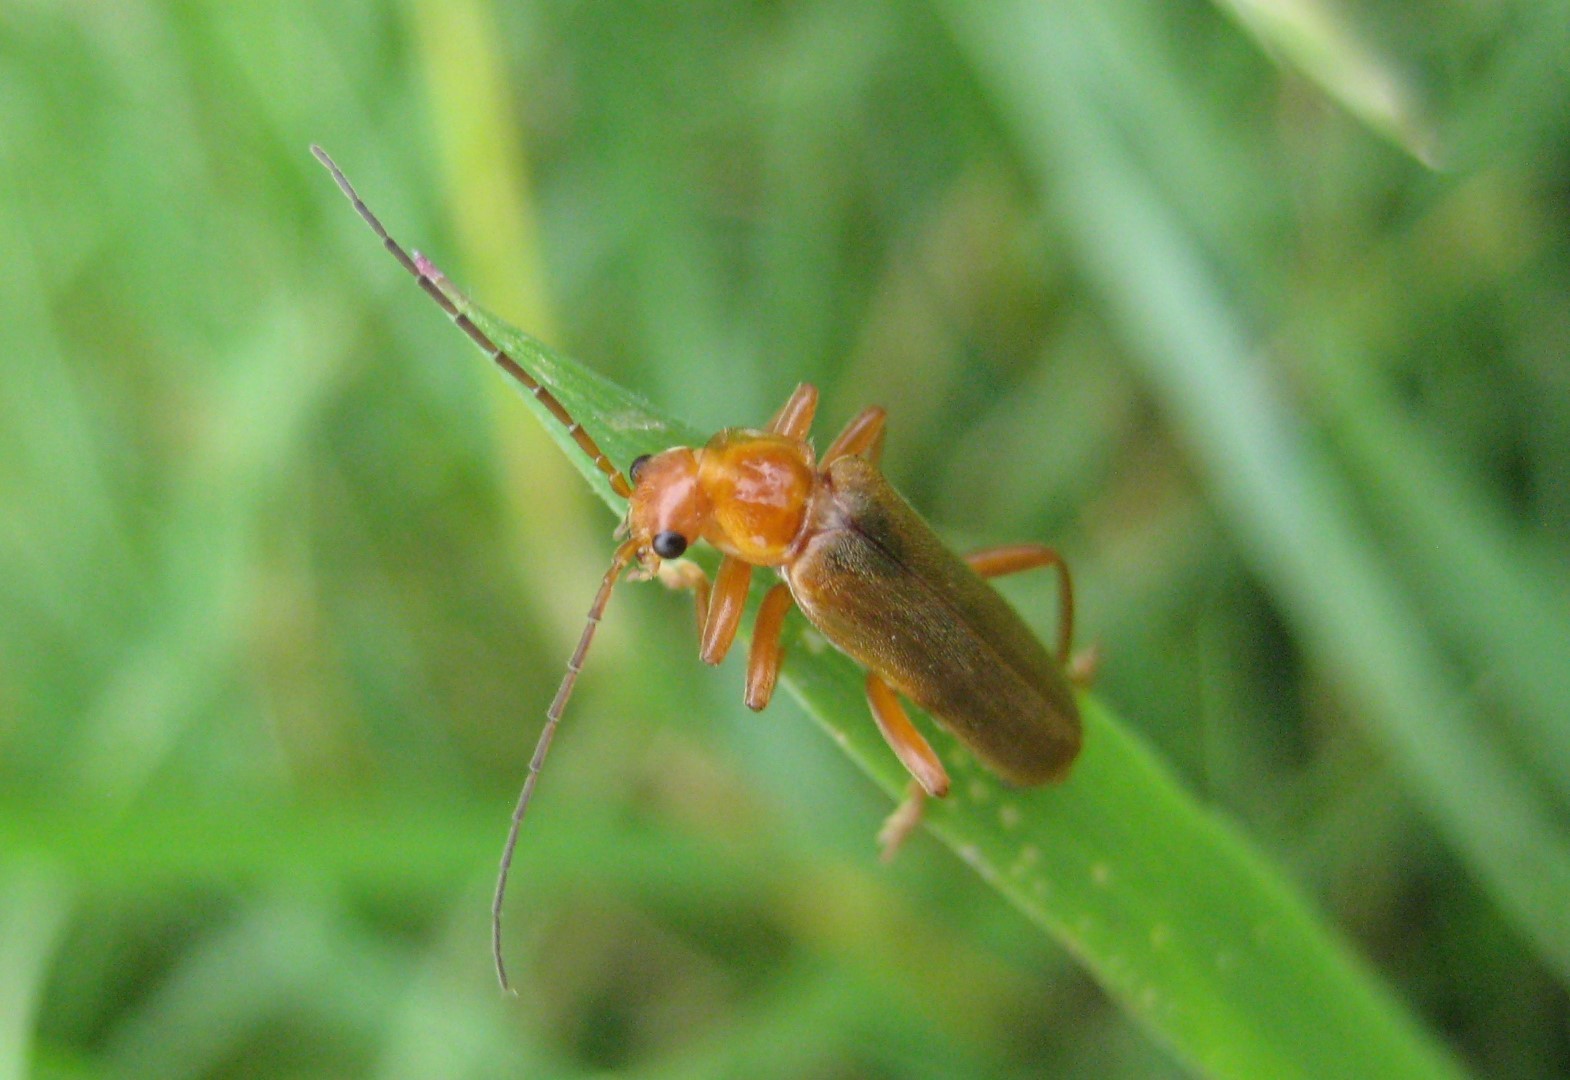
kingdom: Animalia
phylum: Arthropoda
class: Insecta
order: Coleoptera
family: Cantharidae
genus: Cantharis
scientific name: Cantharis rufa
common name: Red-spotted soldier beetle
